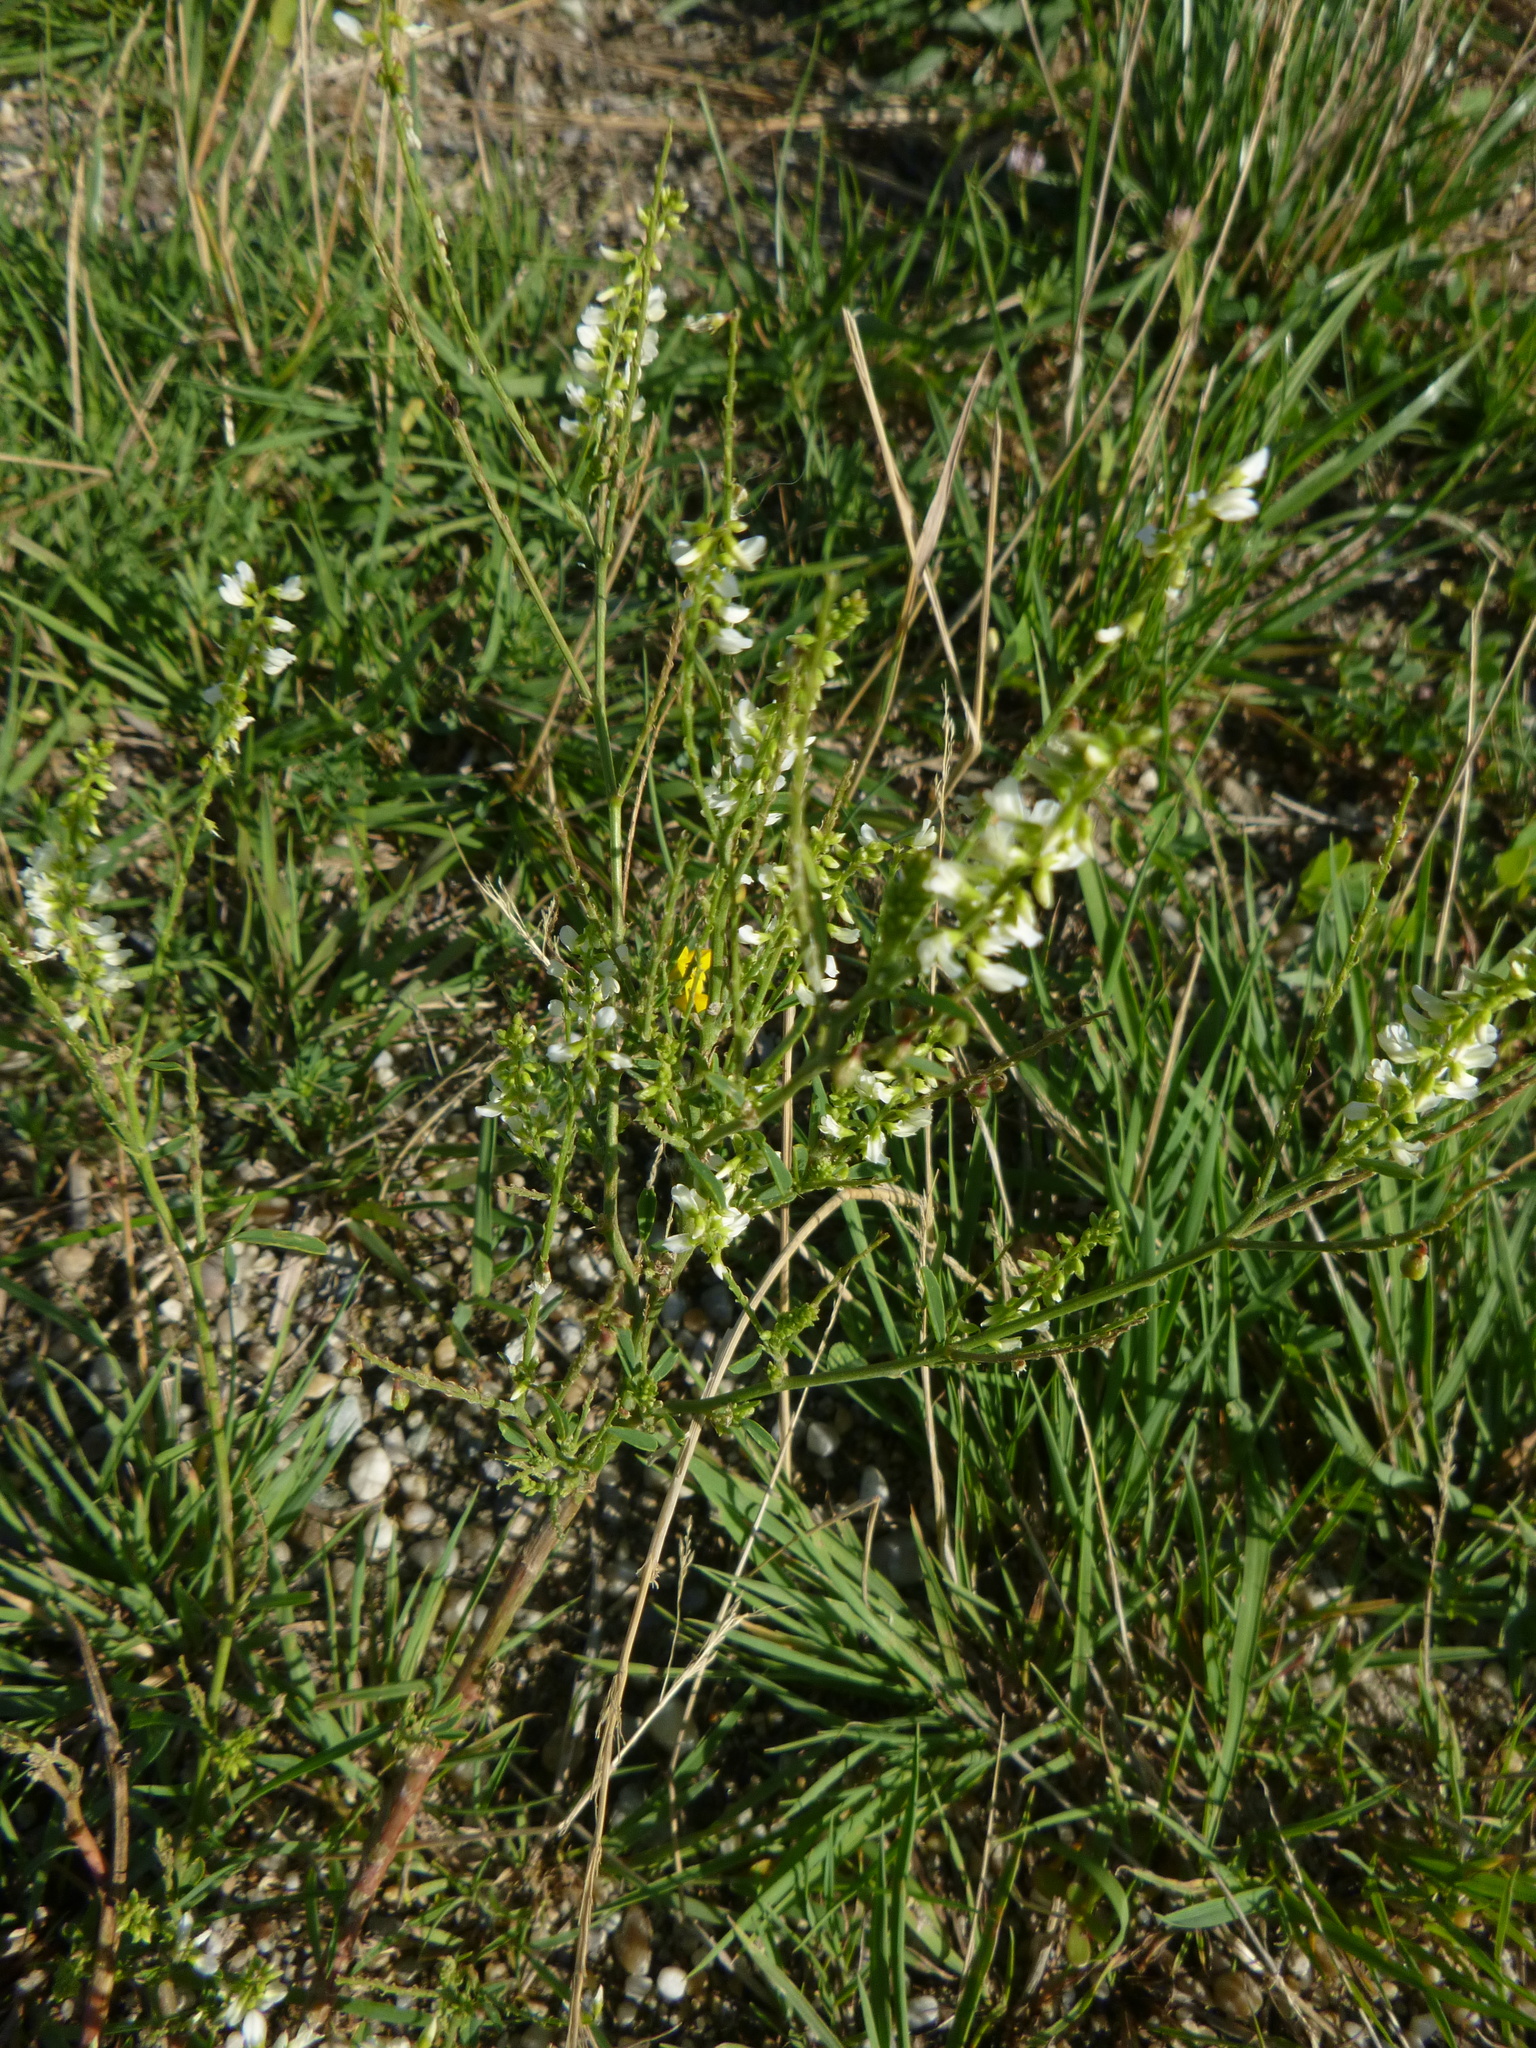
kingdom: Plantae
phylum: Tracheophyta
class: Magnoliopsida
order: Fabales
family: Fabaceae
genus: Melilotus
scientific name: Melilotus albus
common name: White melilot
